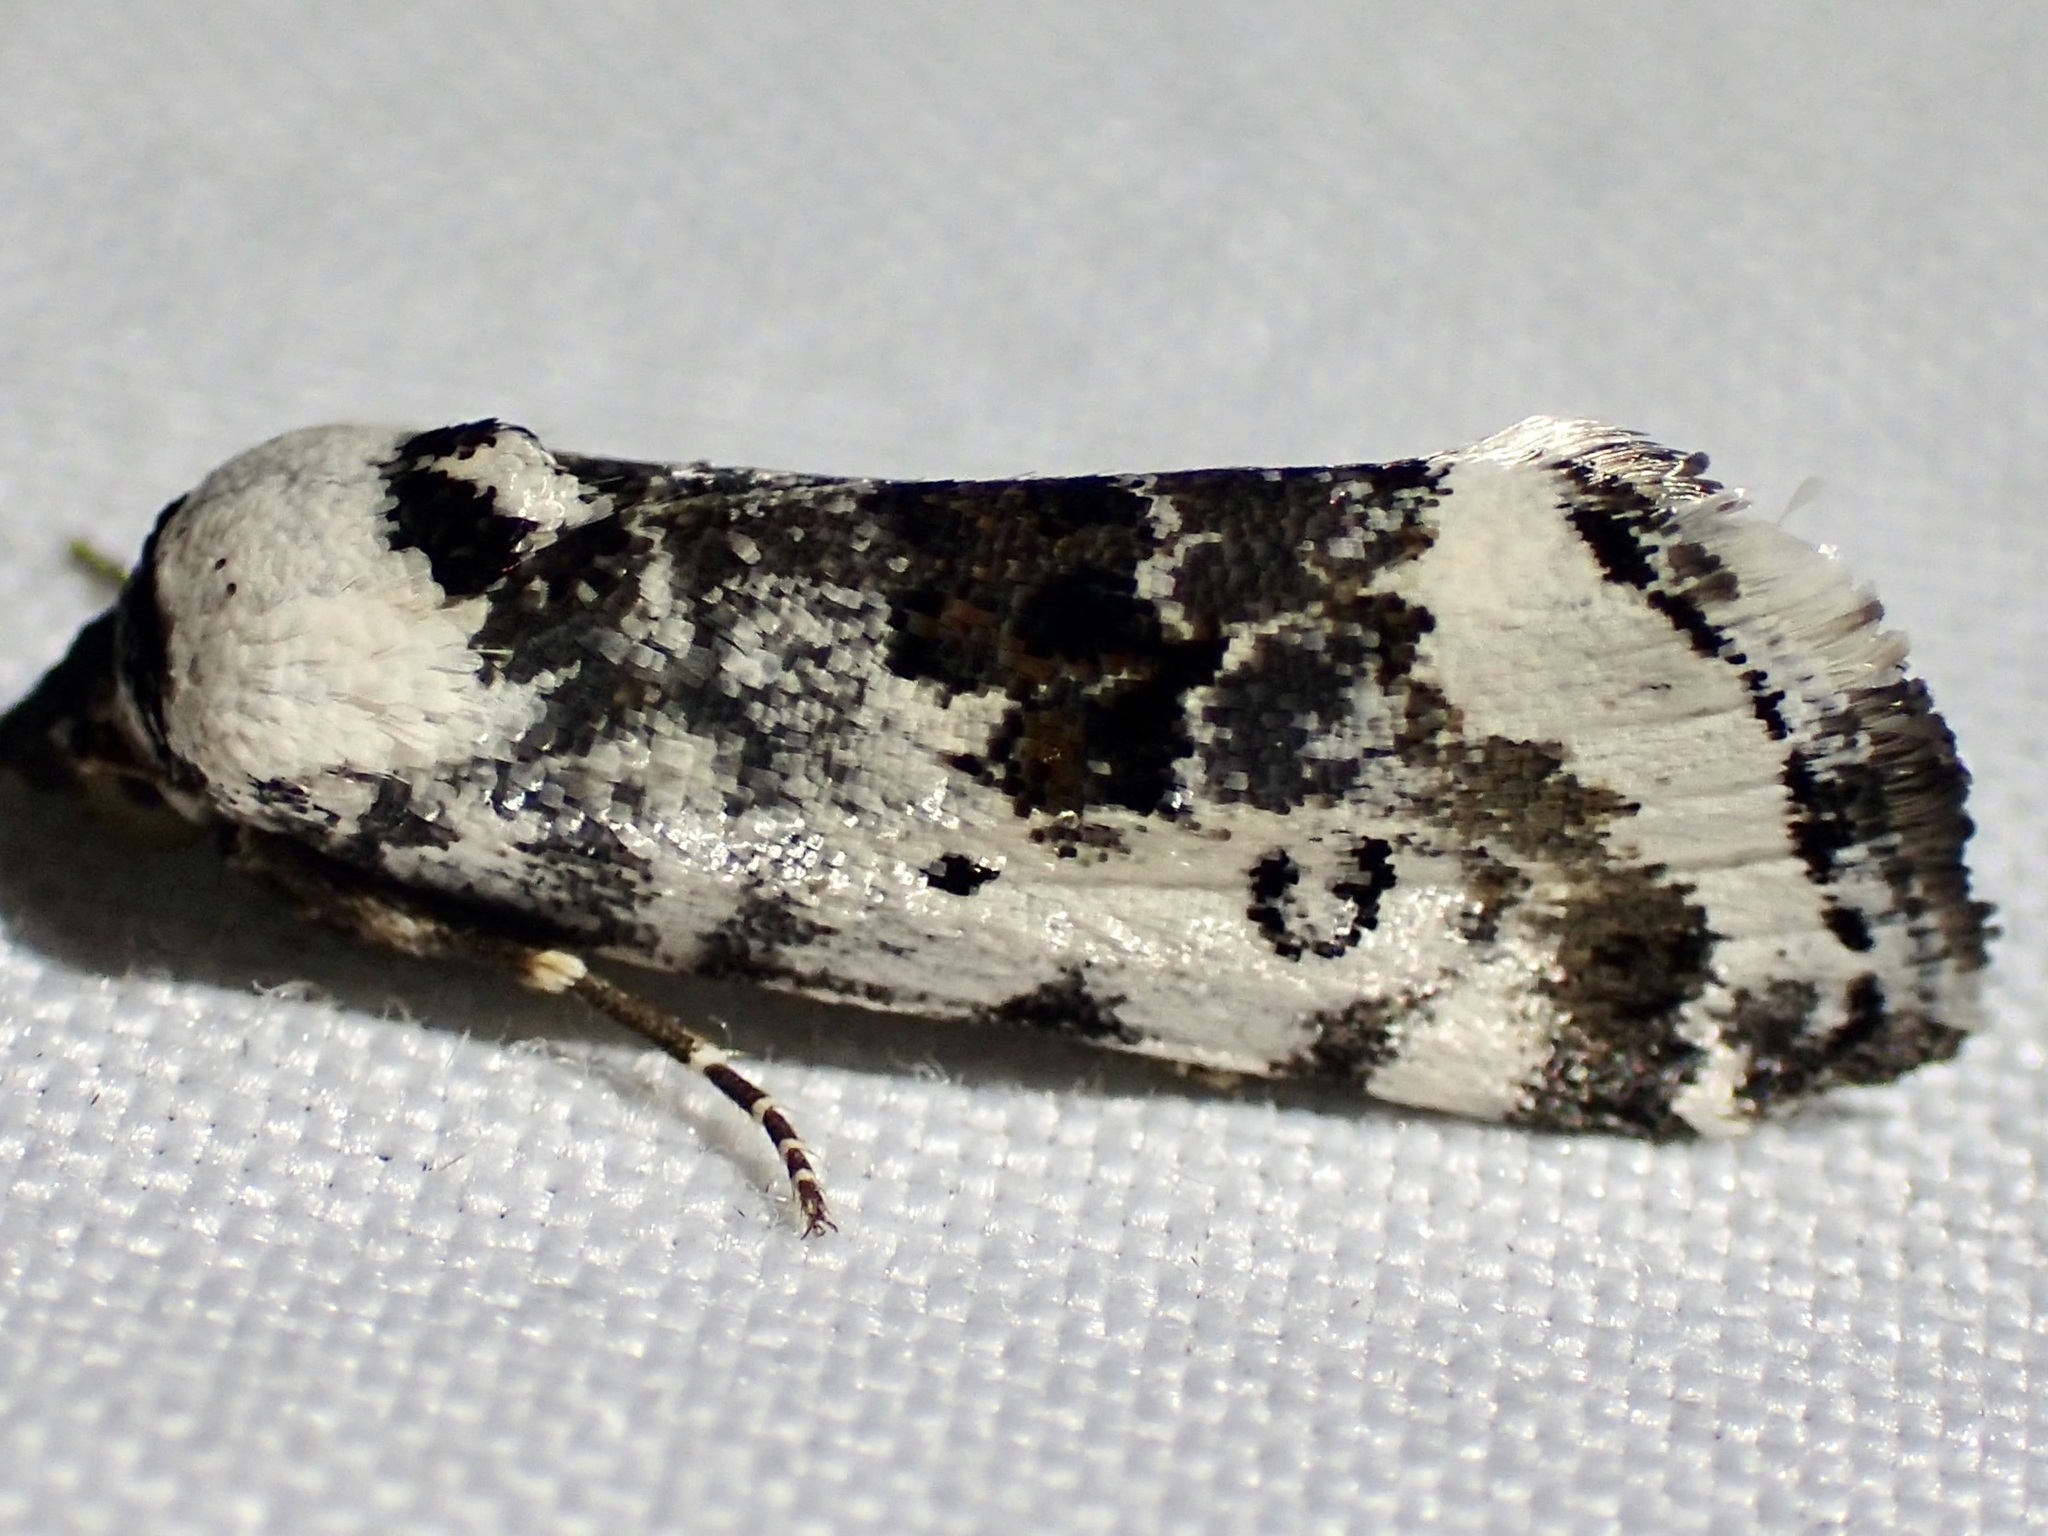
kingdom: Animalia
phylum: Arthropoda
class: Insecta
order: Lepidoptera
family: Noctuidae
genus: Acontia
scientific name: Acontia tripartita
